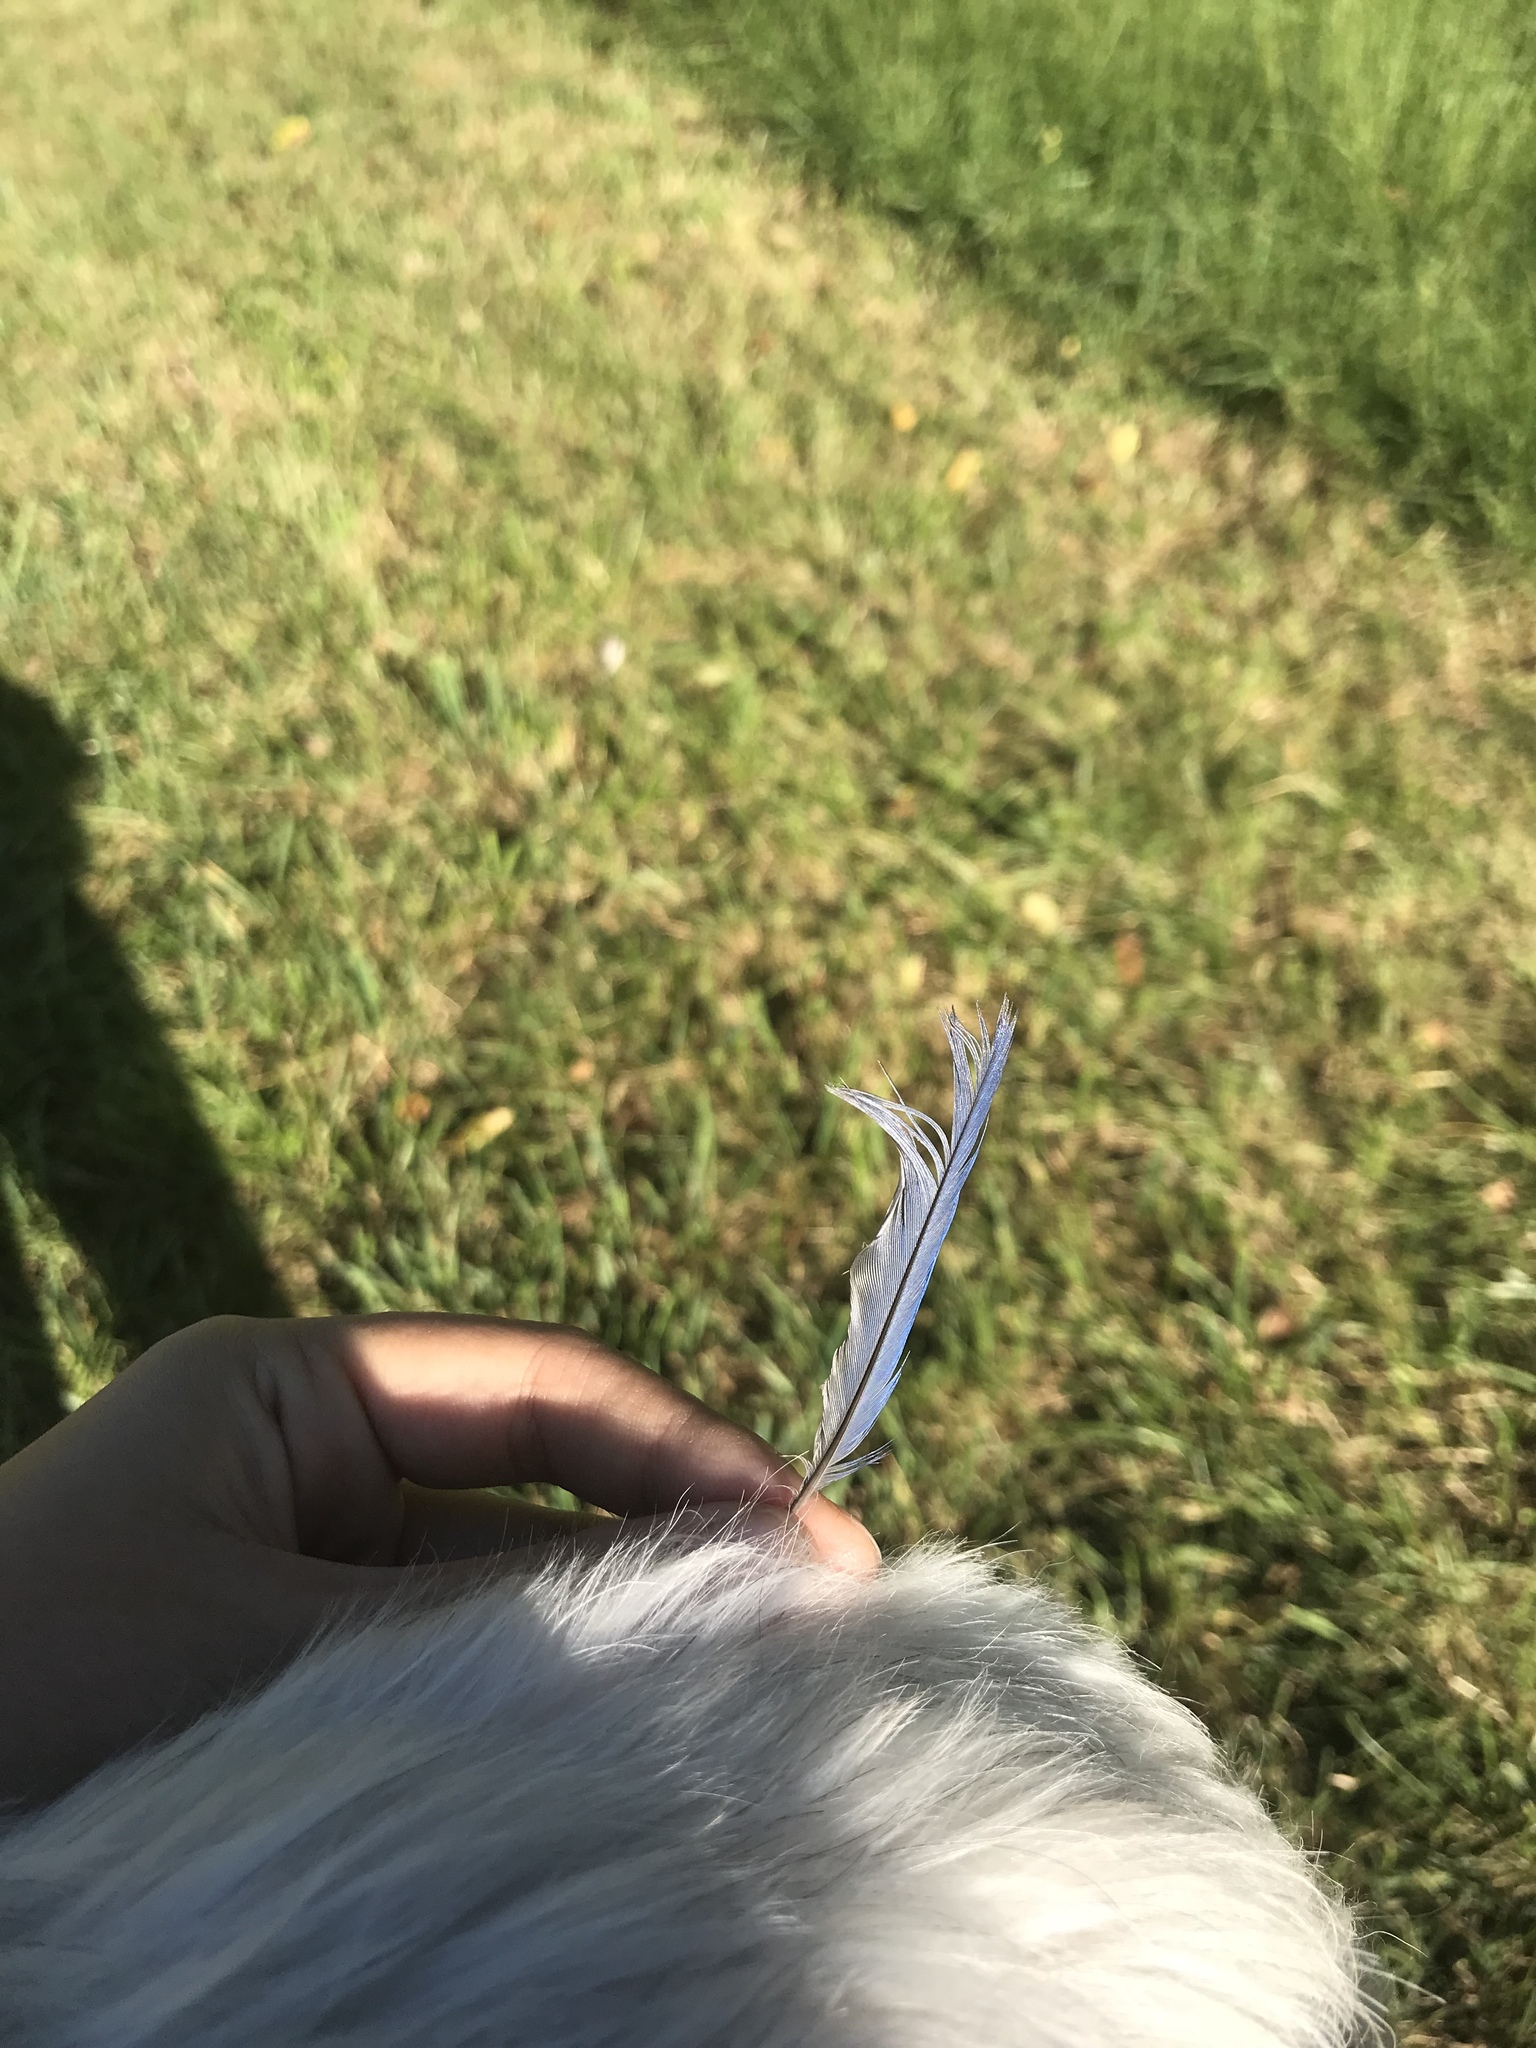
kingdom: Animalia
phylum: Chordata
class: Aves
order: Passeriformes
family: Turdidae
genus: Sialia
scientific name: Sialia sialis
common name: Eastern bluebird
